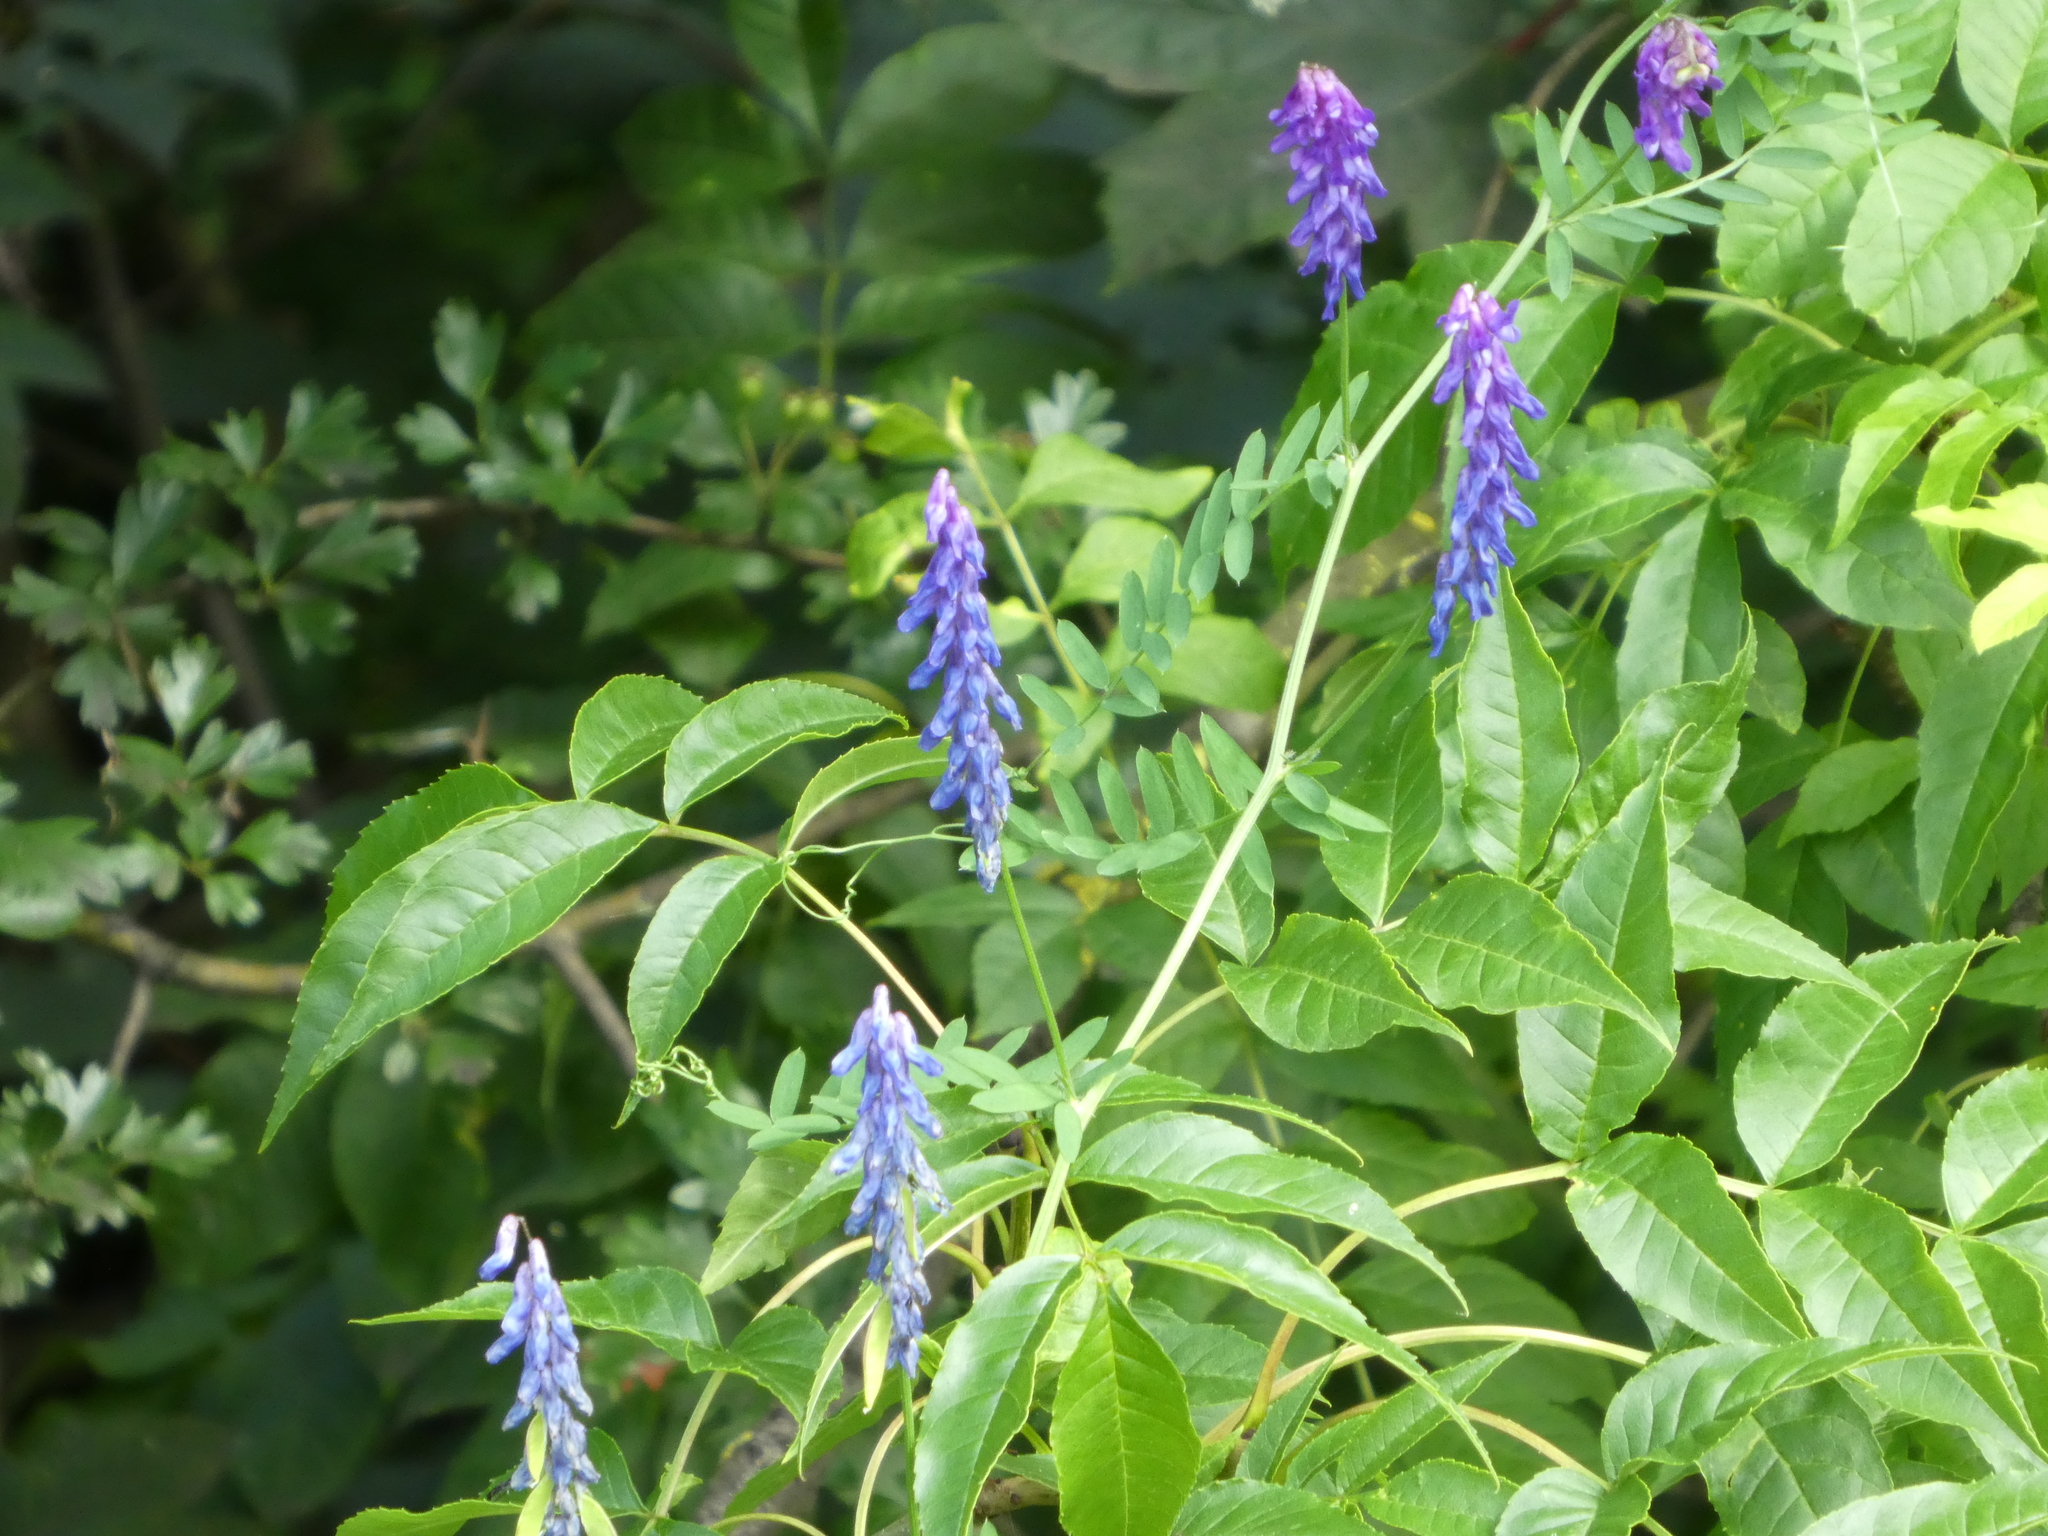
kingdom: Plantae
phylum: Tracheophyta
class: Magnoliopsida
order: Fabales
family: Fabaceae
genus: Vicia
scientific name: Vicia cracca
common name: Bird vetch
